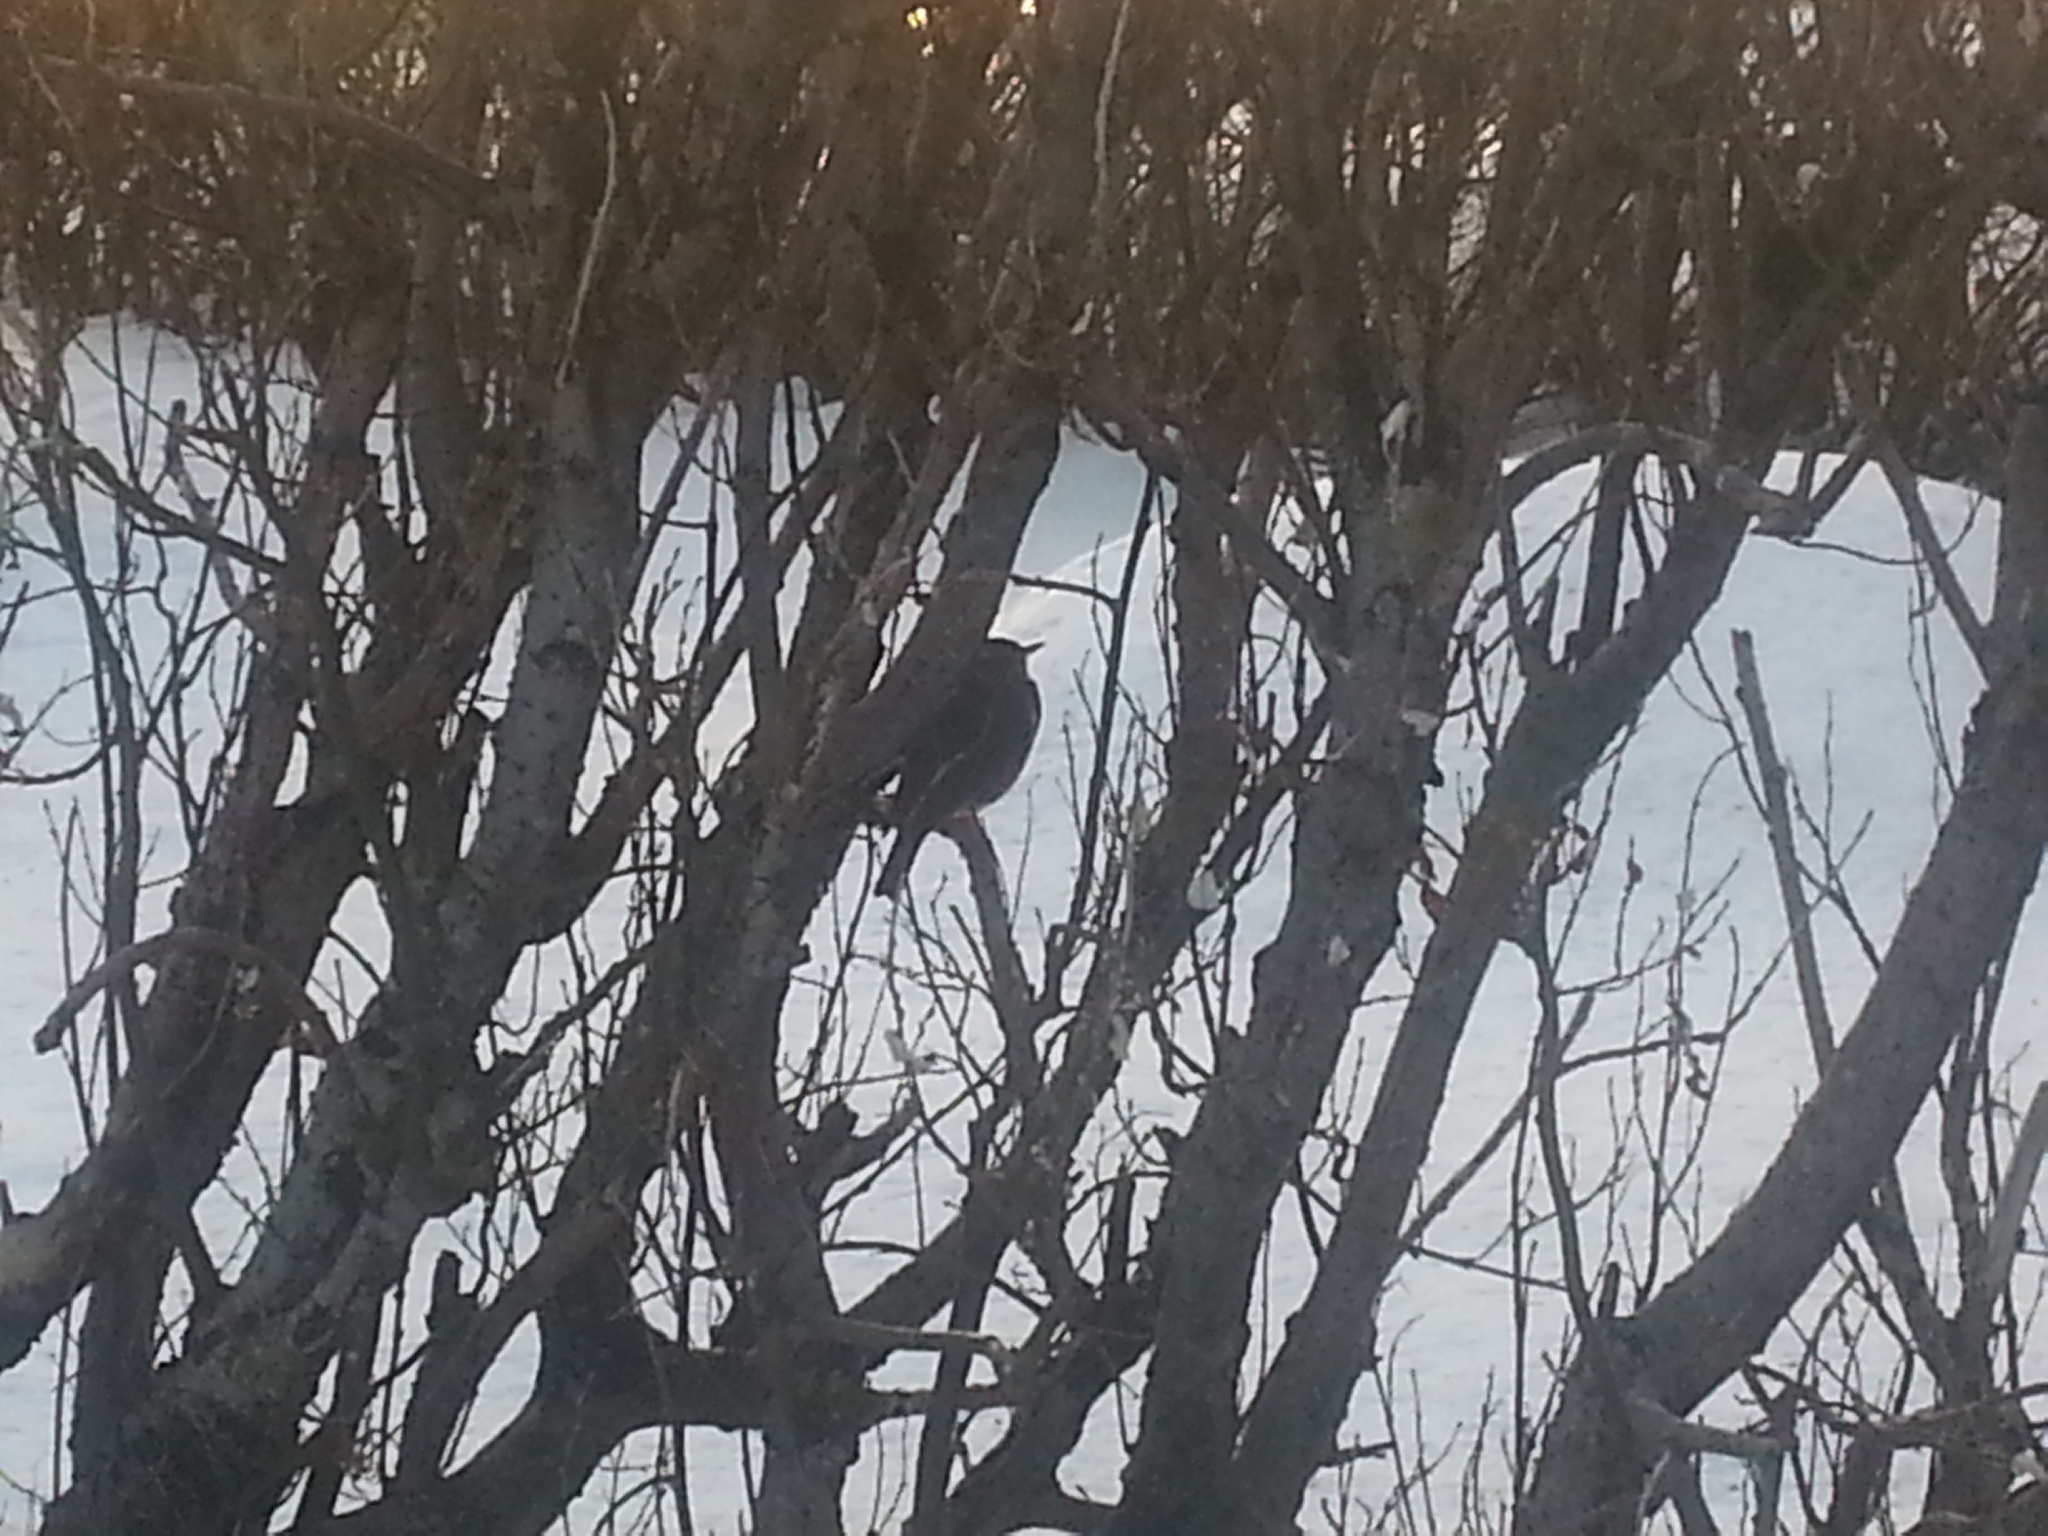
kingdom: Animalia
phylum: Chordata
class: Aves
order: Passeriformes
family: Turdidae
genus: Turdus
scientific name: Turdus iliacus
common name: Redwing
